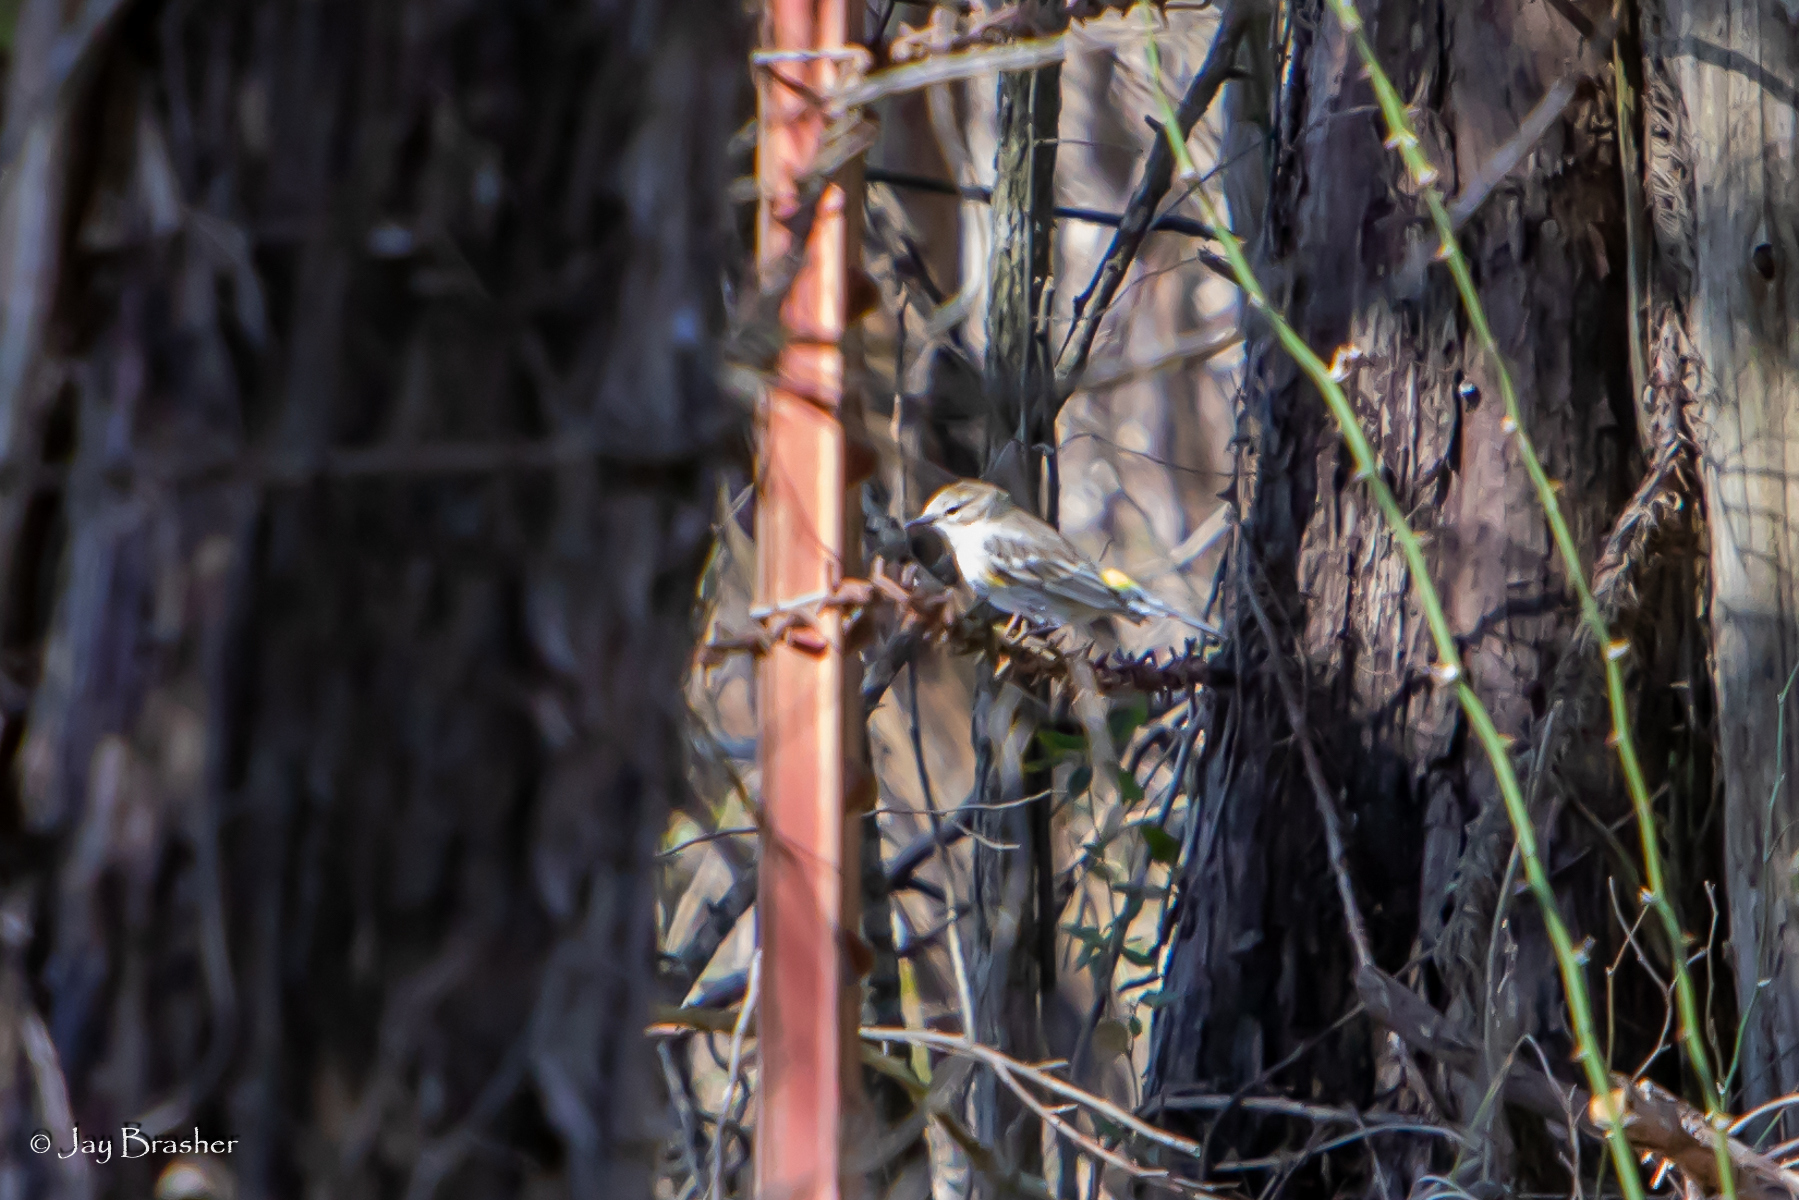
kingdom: Animalia
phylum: Chordata
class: Aves
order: Passeriformes
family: Parulidae
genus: Setophaga
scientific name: Setophaga coronata
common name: Myrtle warbler
